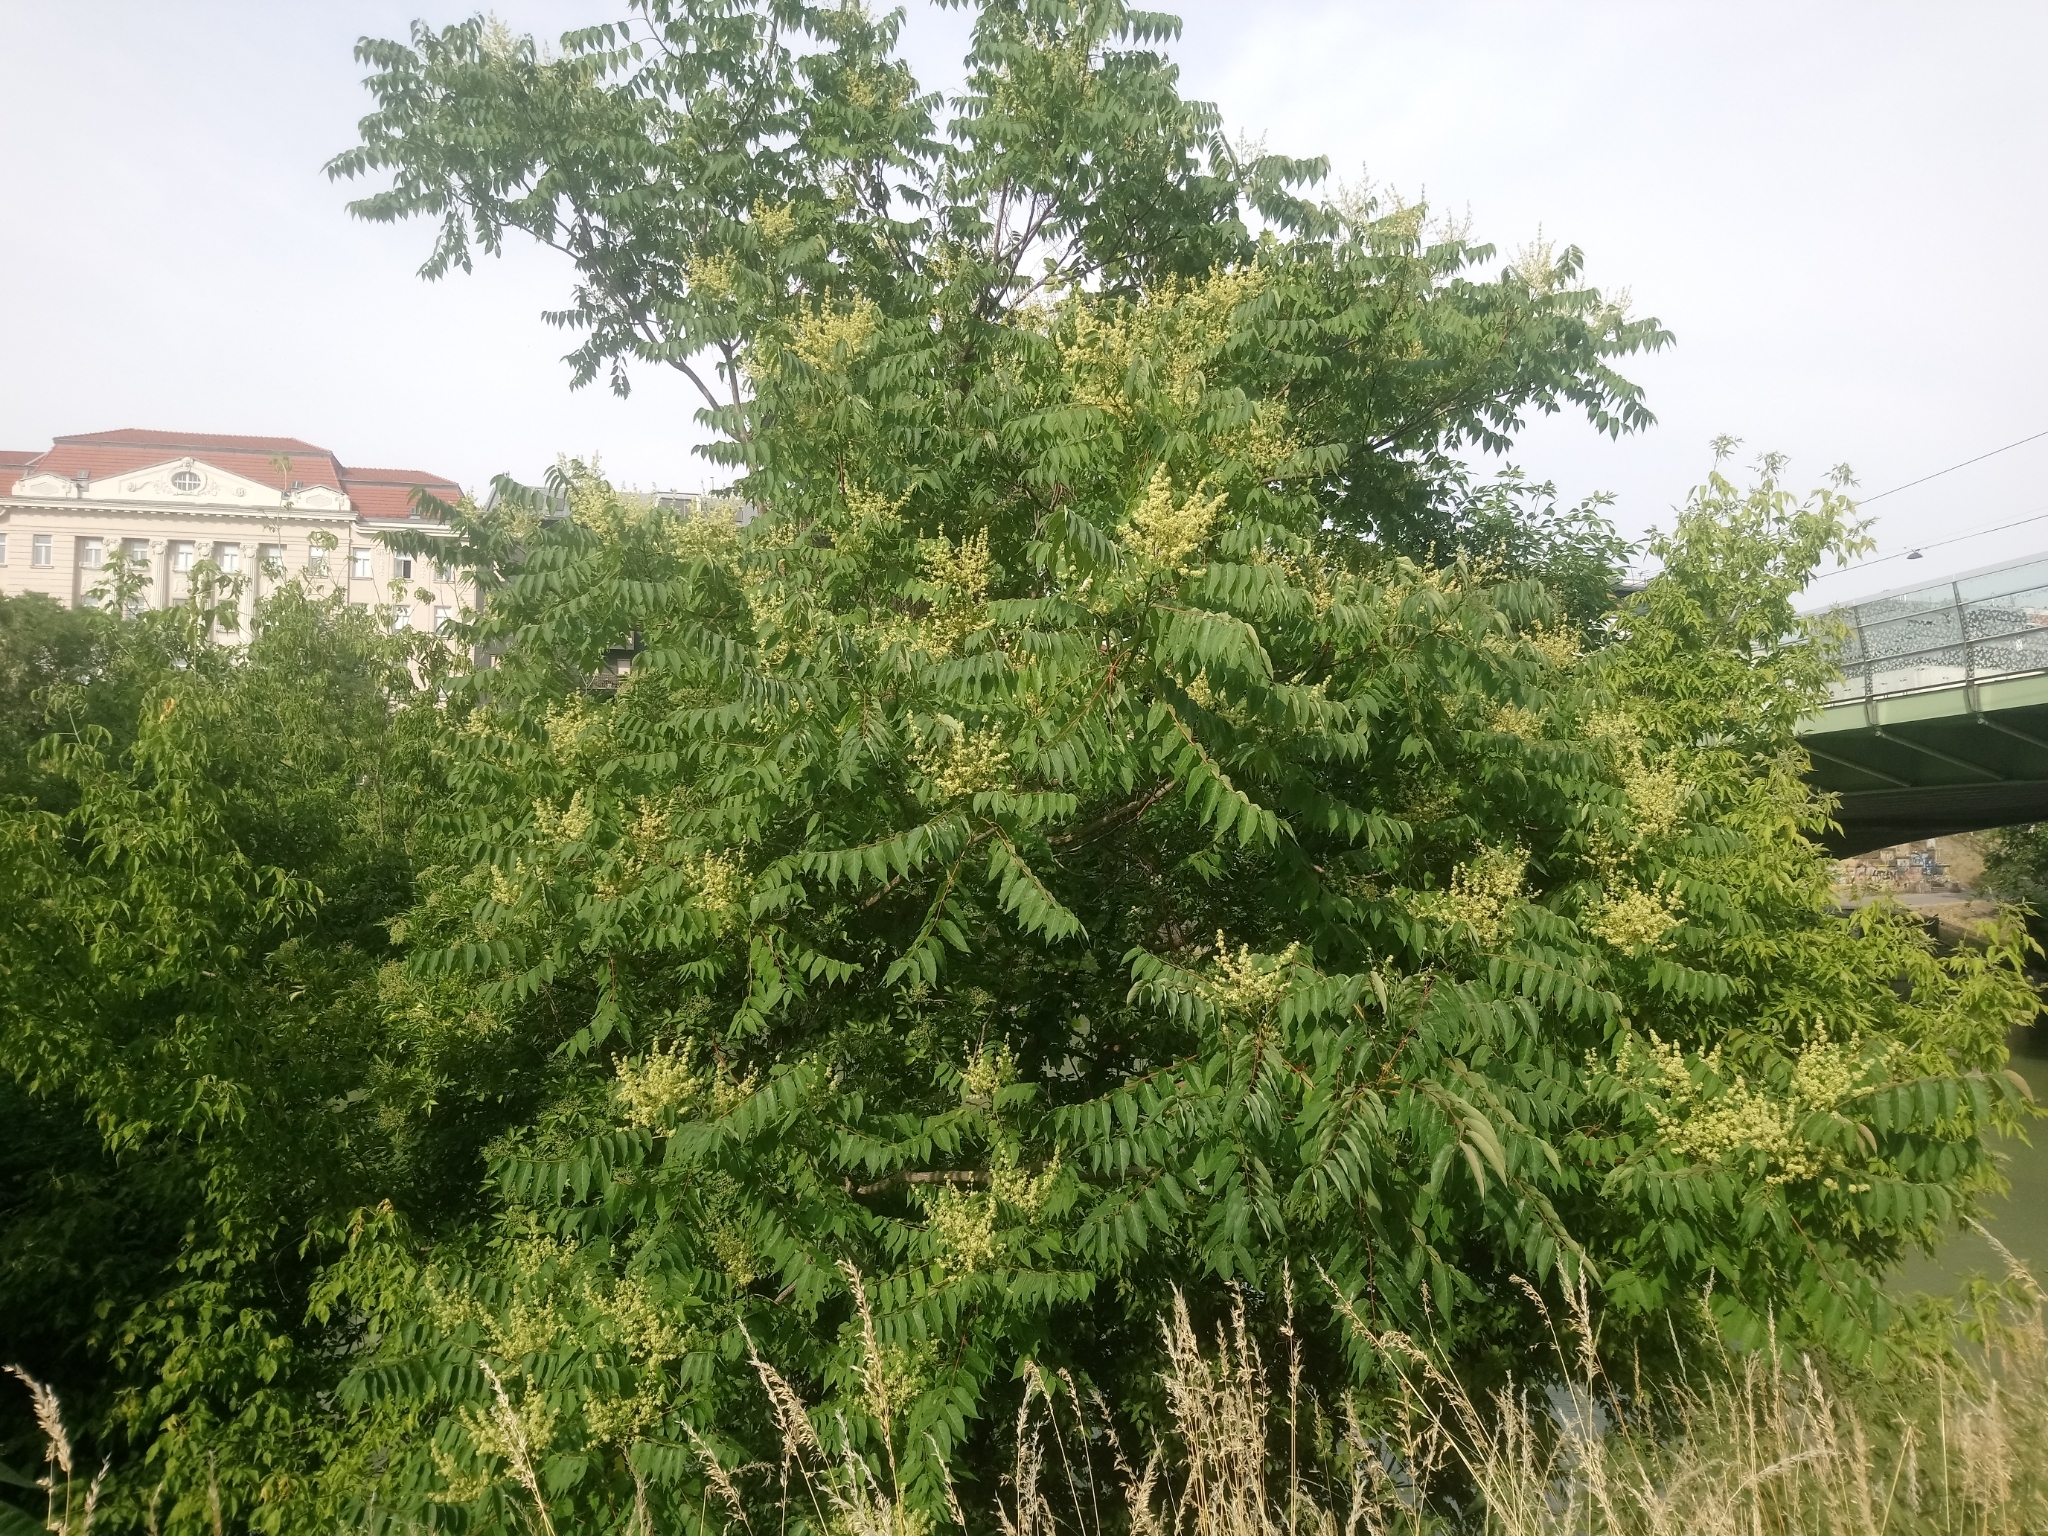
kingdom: Plantae
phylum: Tracheophyta
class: Magnoliopsida
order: Sapindales
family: Simaroubaceae
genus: Ailanthus
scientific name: Ailanthus altissima
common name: Tree-of-heaven
